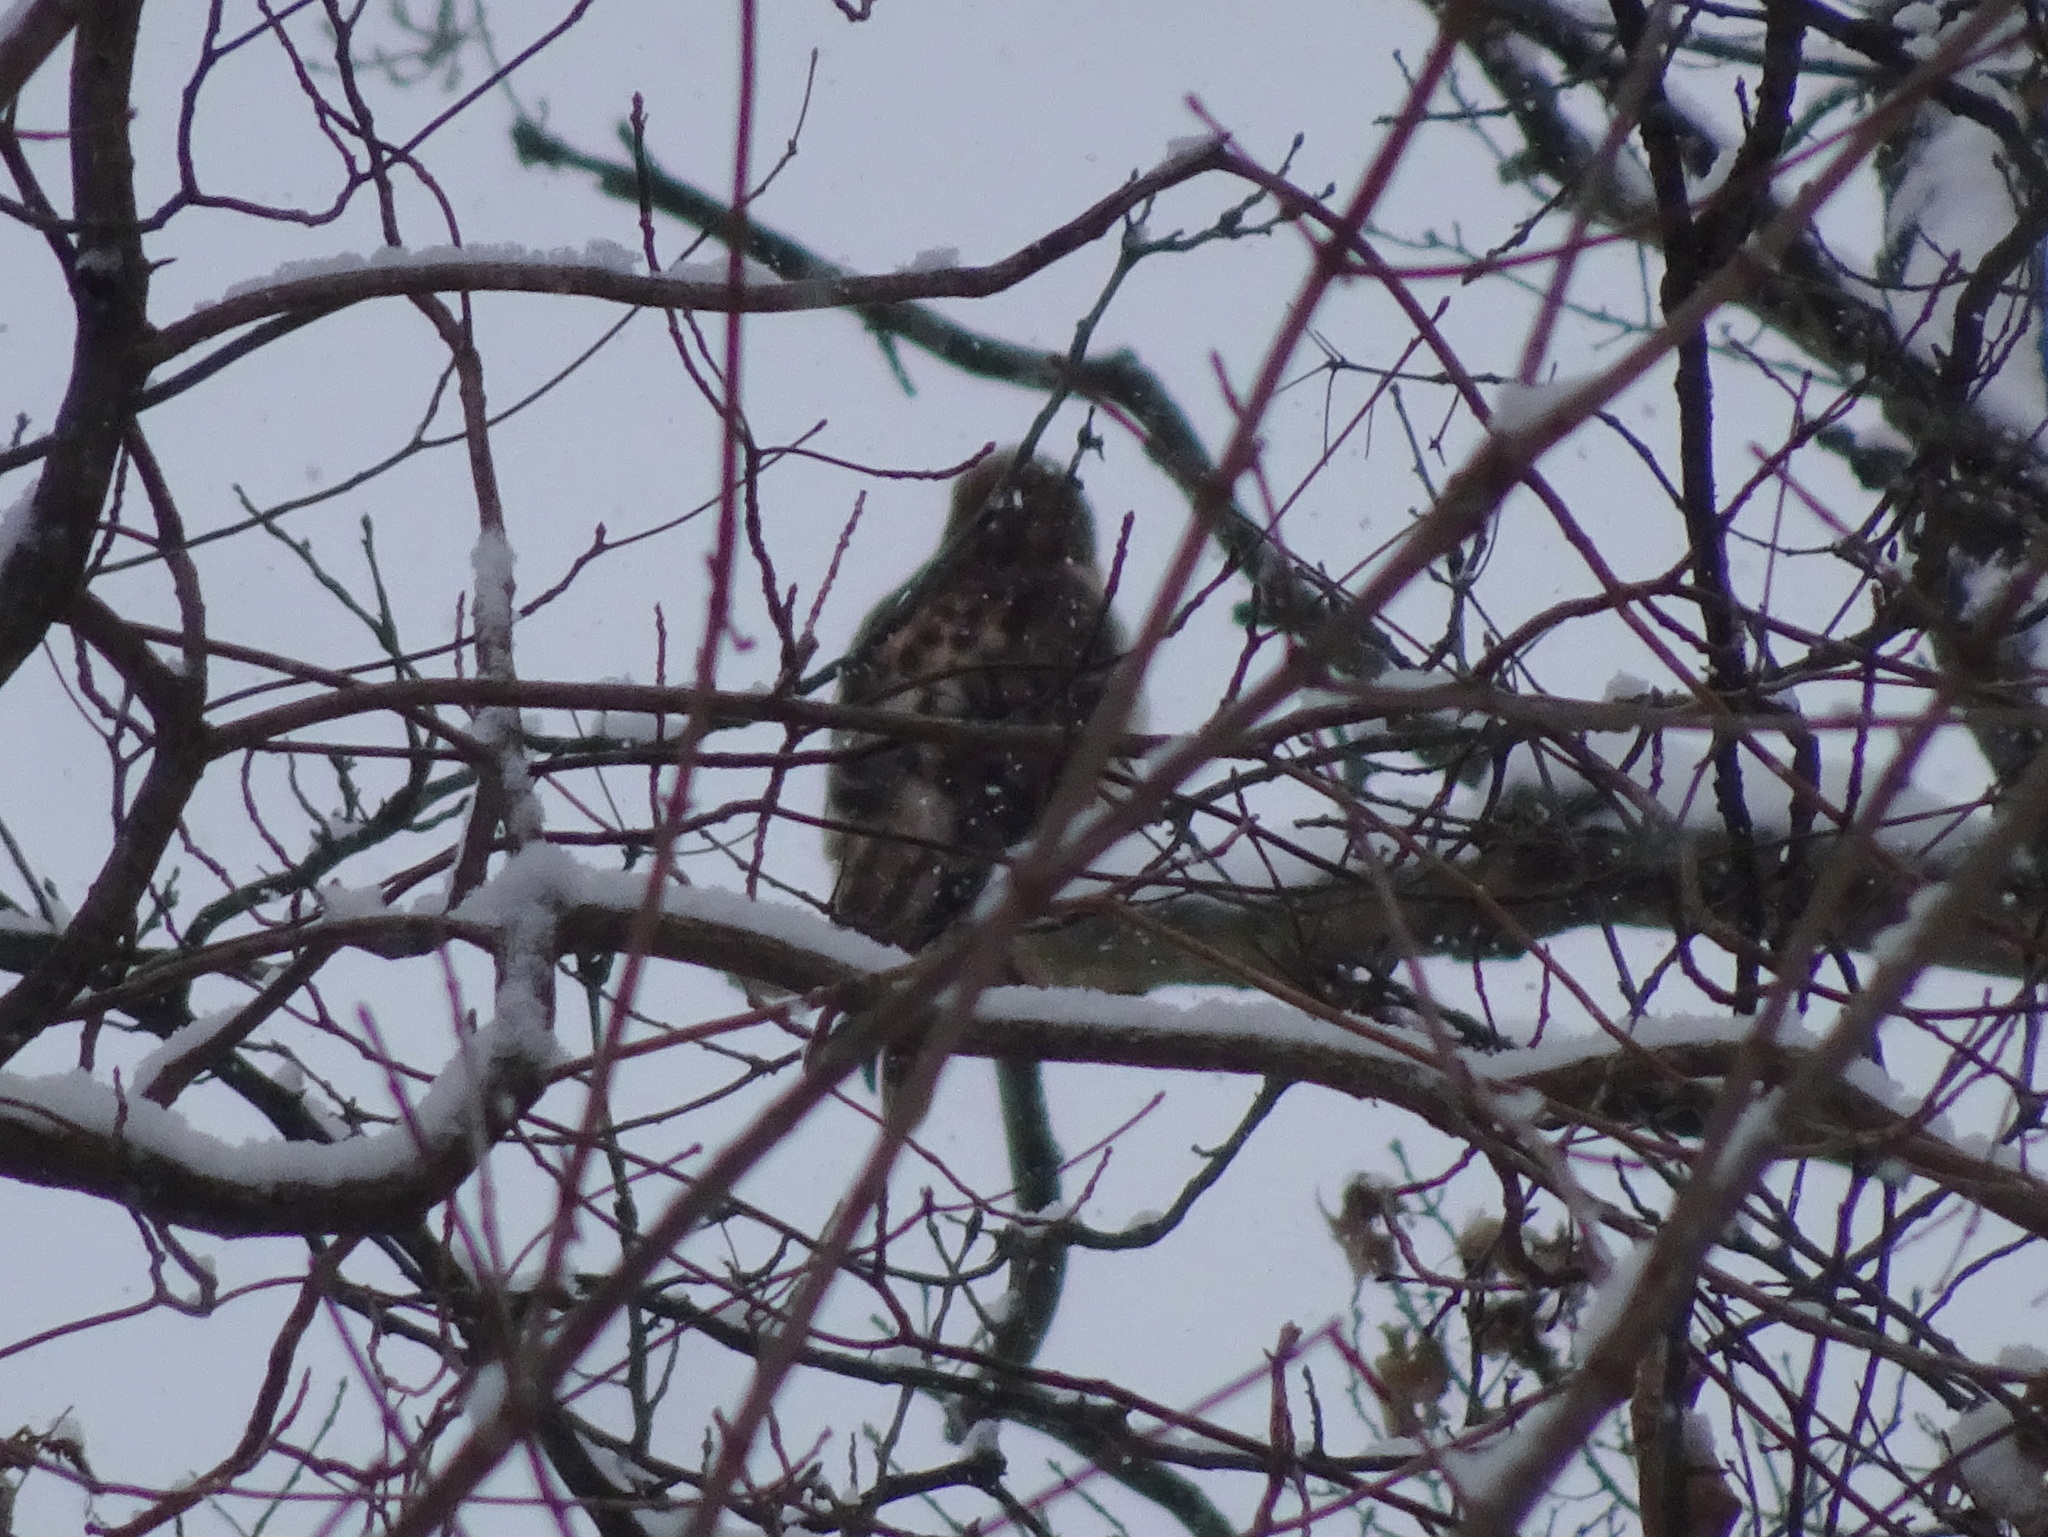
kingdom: Animalia
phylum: Chordata
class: Aves
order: Accipitriformes
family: Accipitridae
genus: Buteo
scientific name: Buteo jamaicensis
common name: Red-tailed hawk
